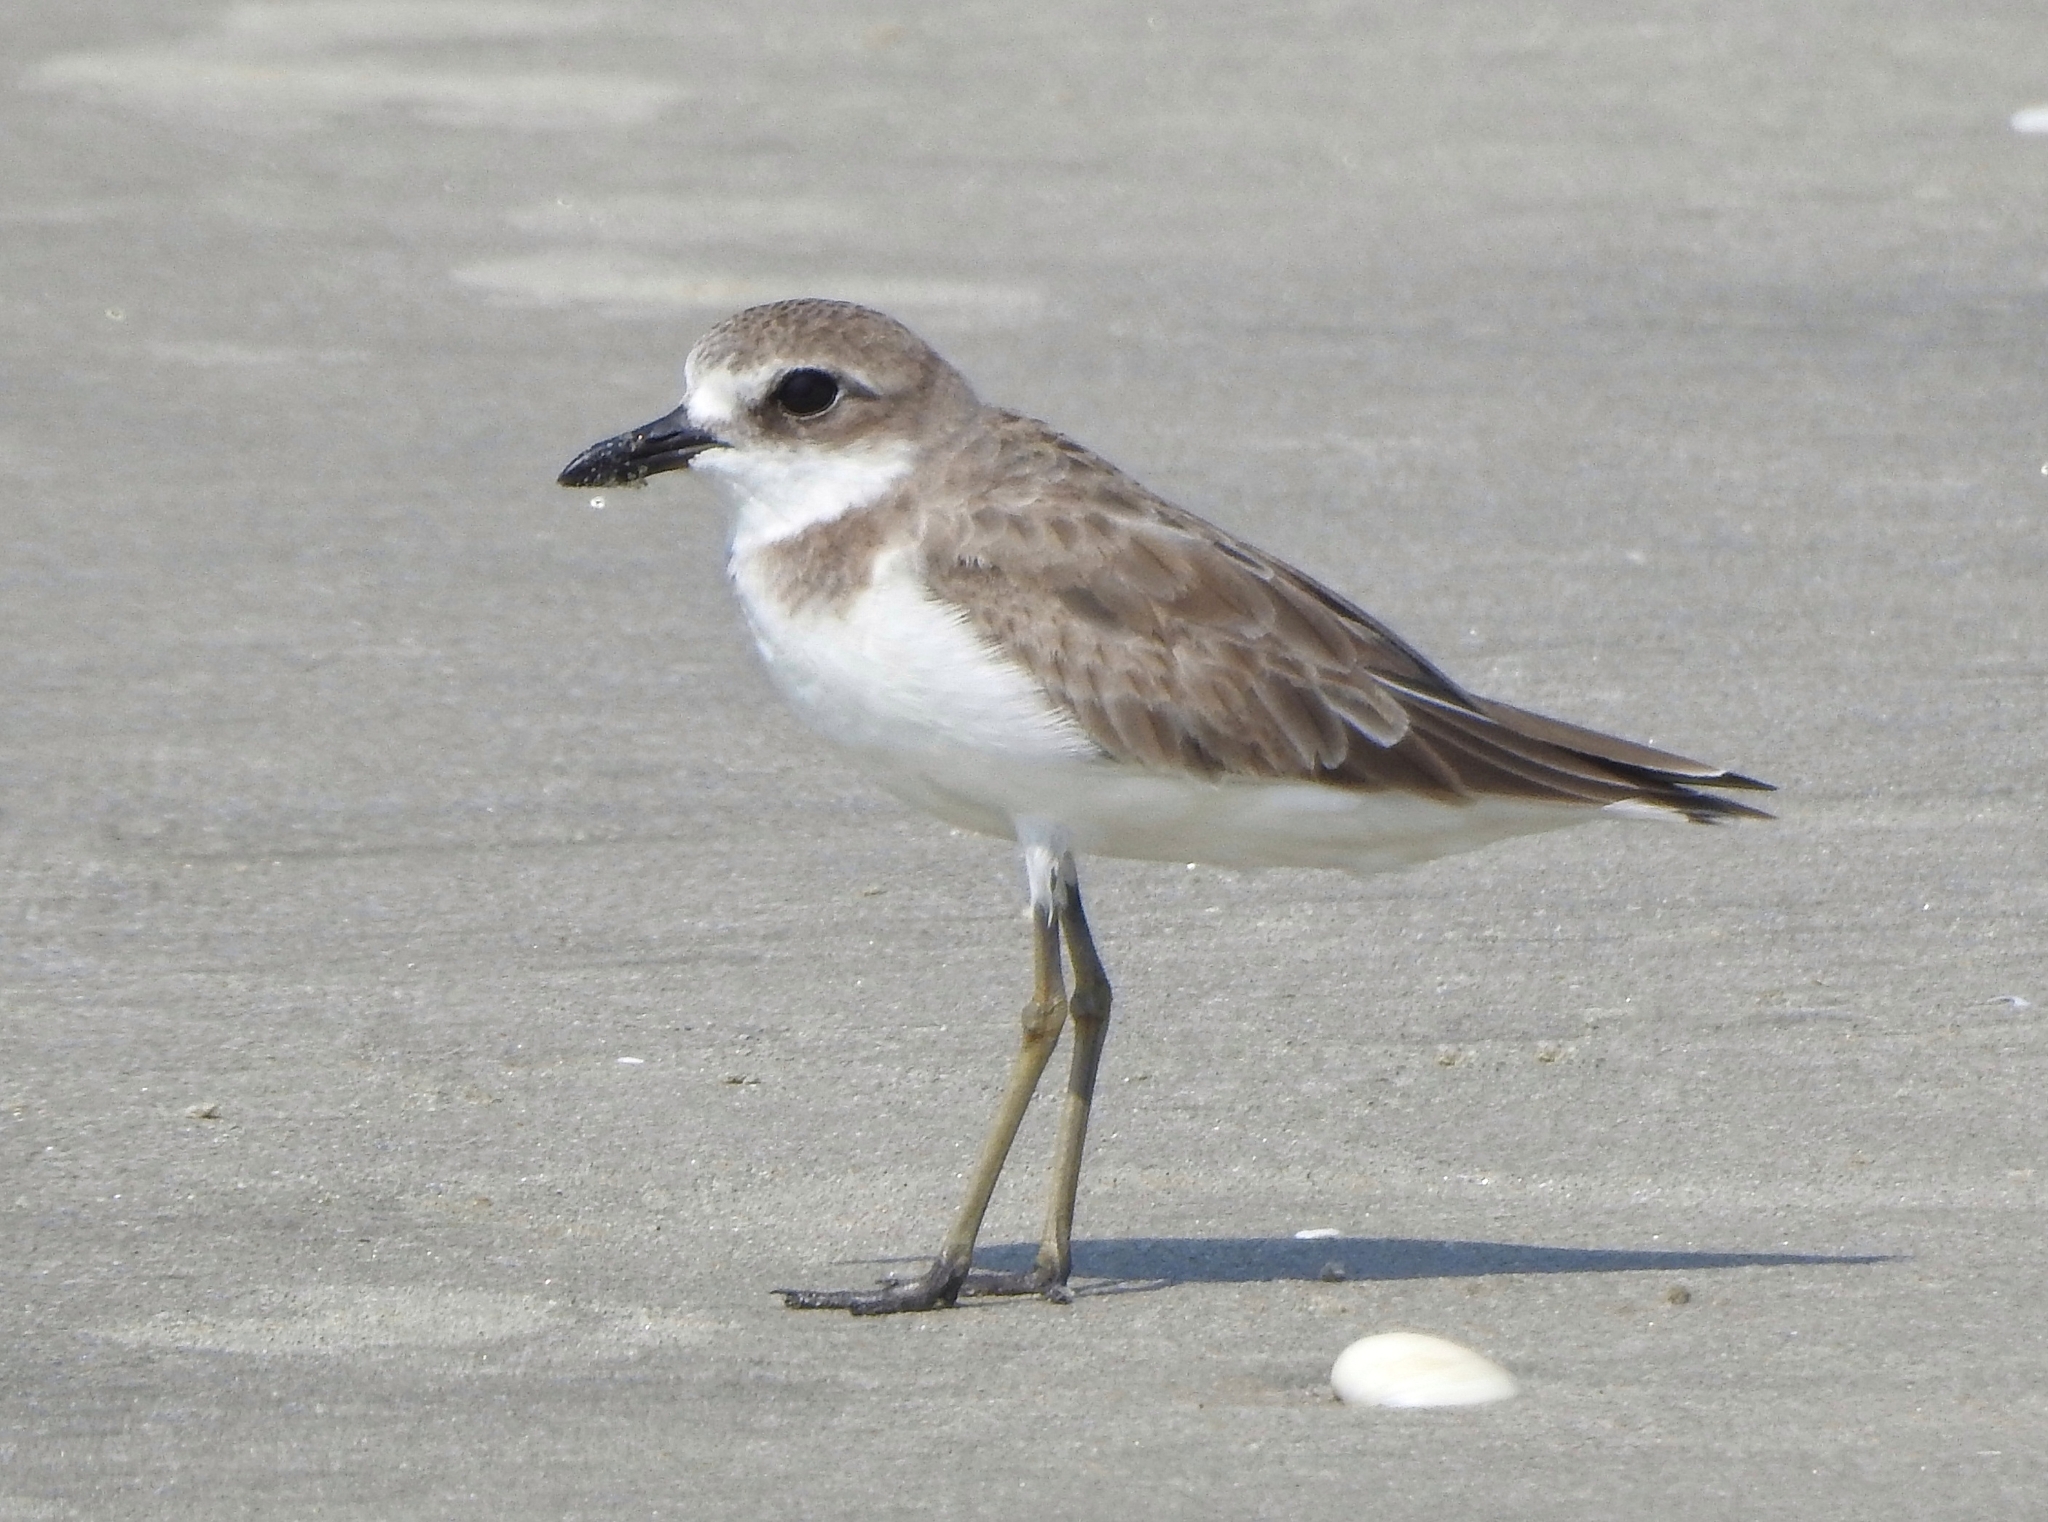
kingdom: Animalia
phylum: Chordata
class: Aves
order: Charadriiformes
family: Charadriidae
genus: Charadrius
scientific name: Charadrius leschenaultii
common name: Greater sand plover
